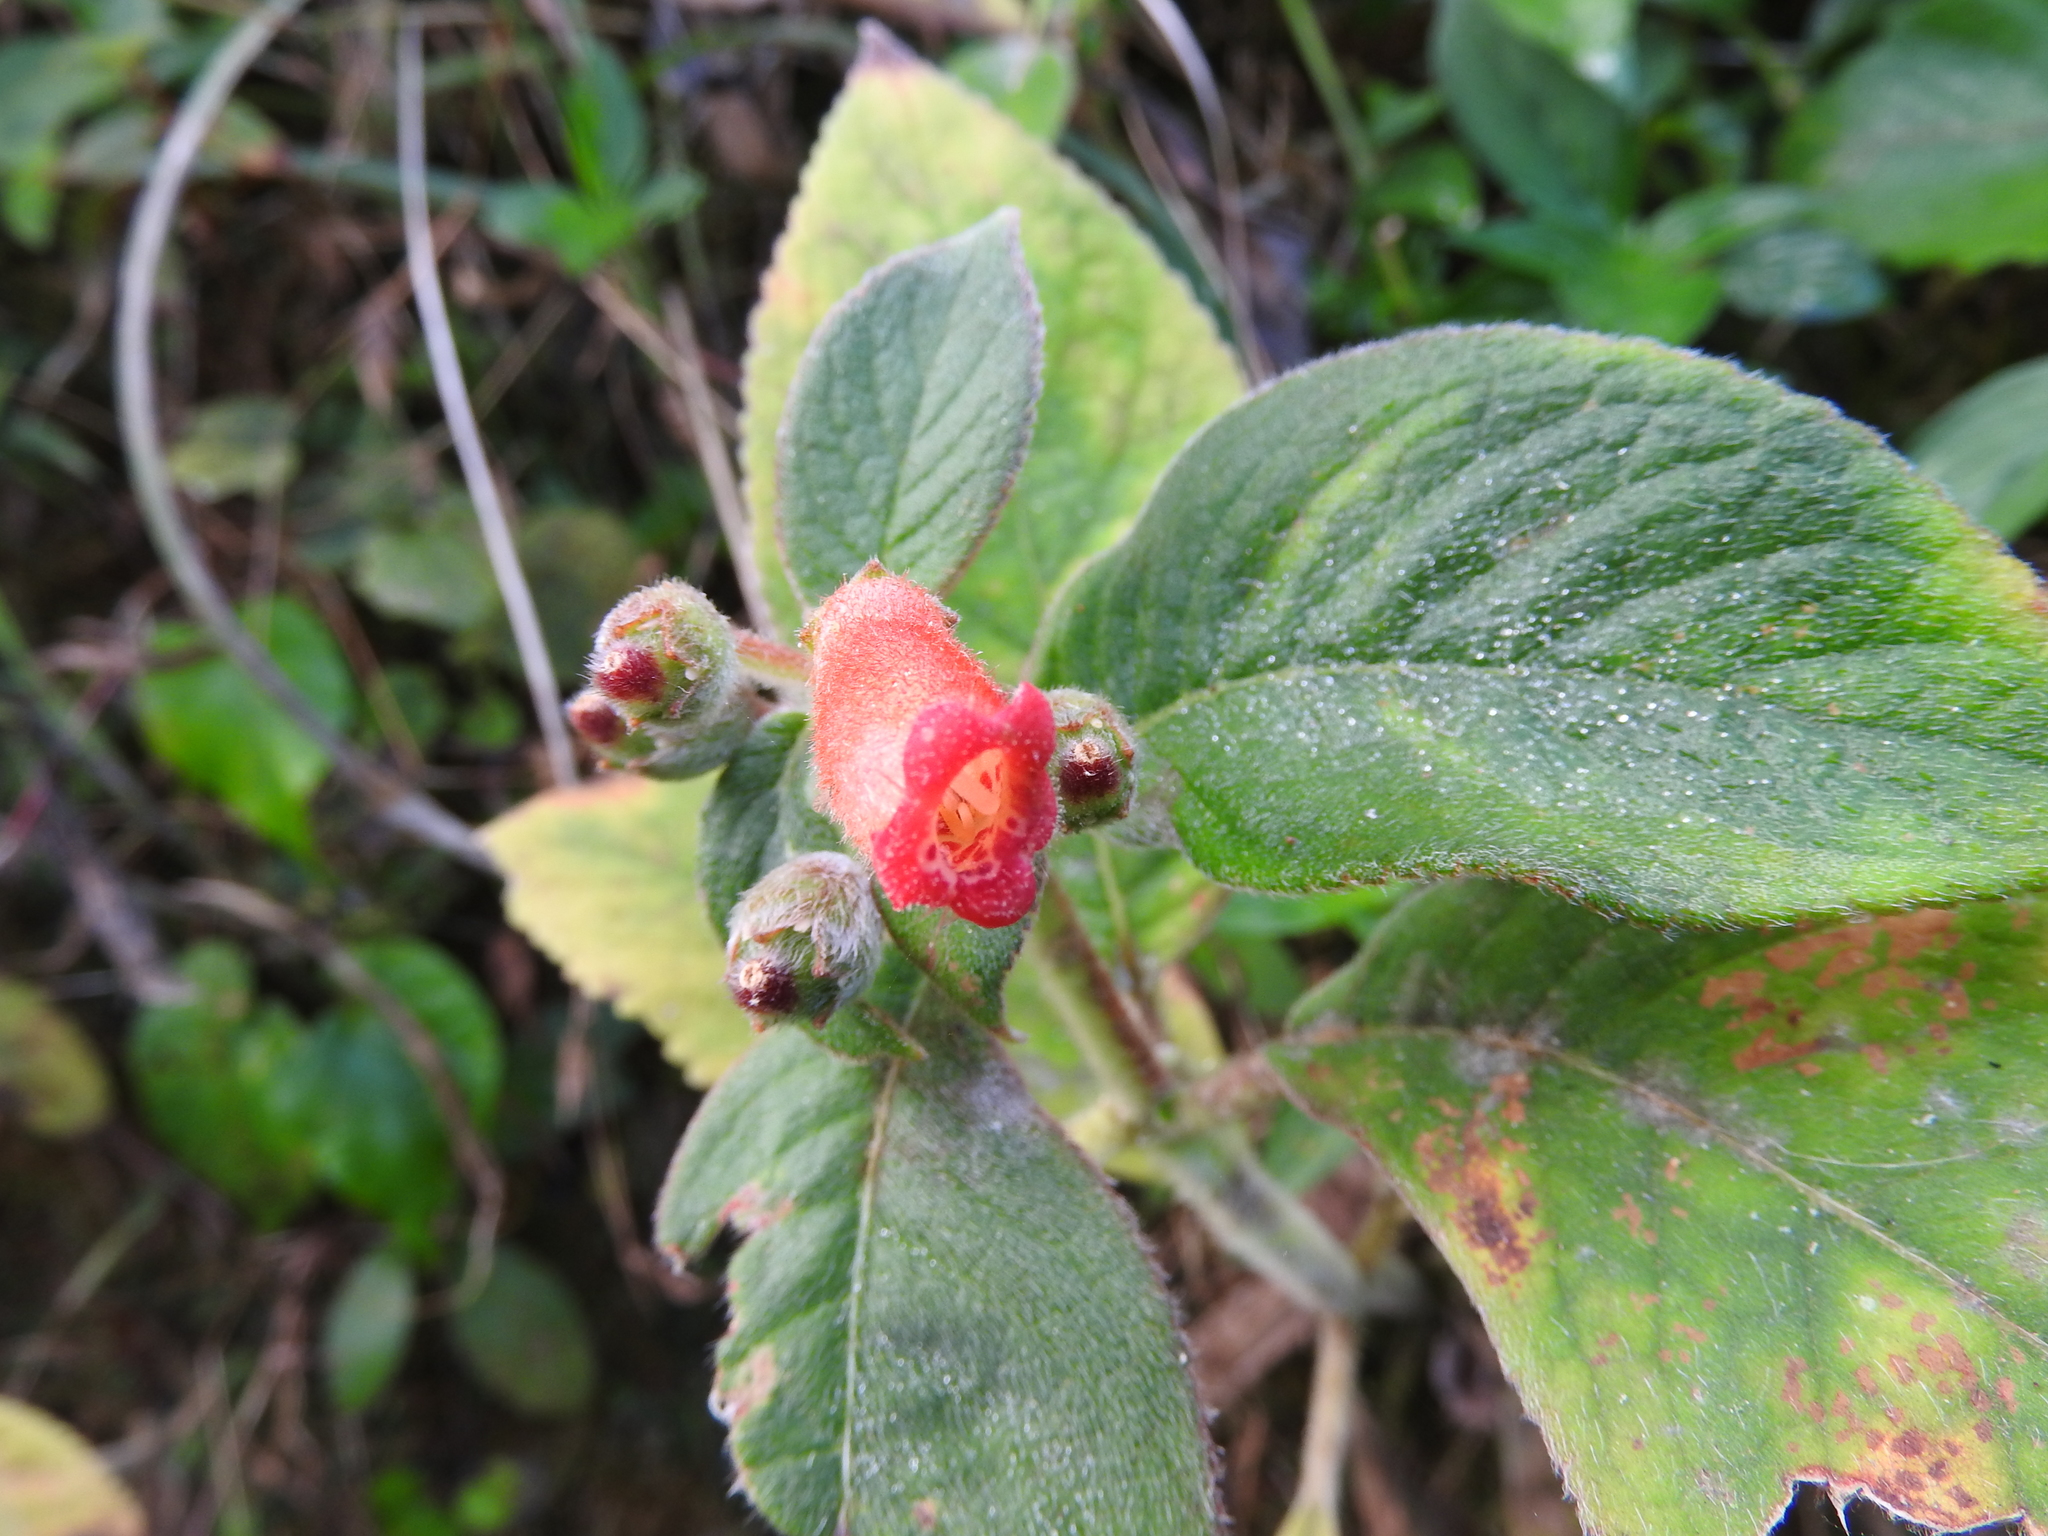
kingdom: Plantae
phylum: Tracheophyta
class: Magnoliopsida
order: Lamiales
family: Gesneriaceae
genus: Kohleria
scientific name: Kohleria spicata
